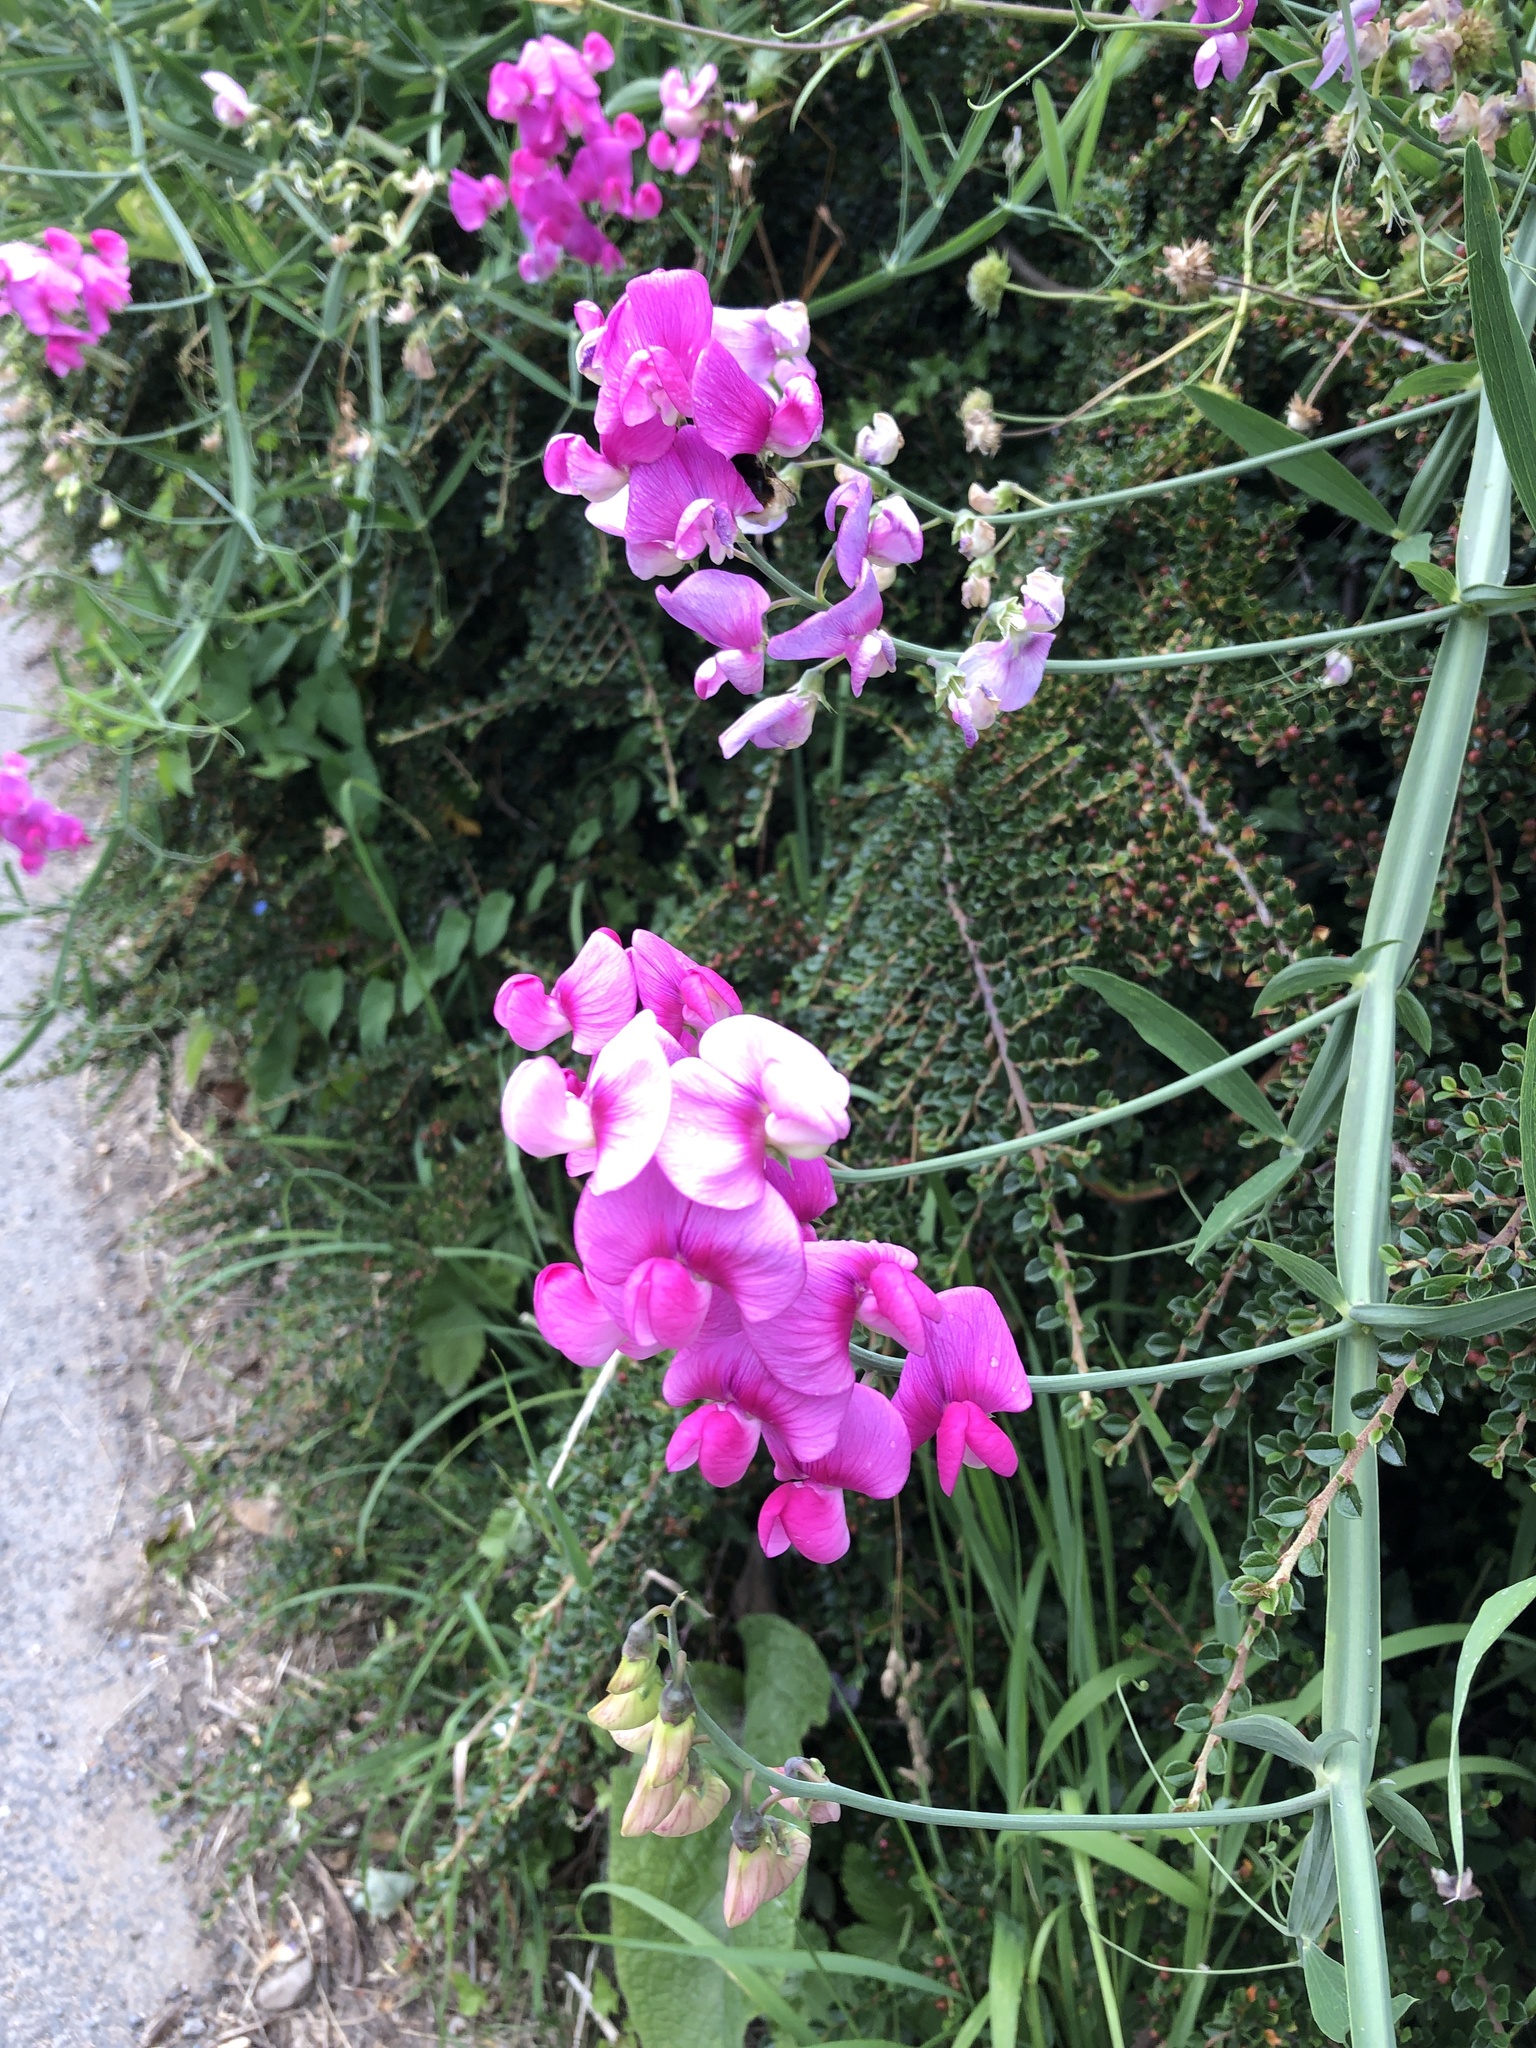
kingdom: Plantae
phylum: Tracheophyta
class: Magnoliopsida
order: Fabales
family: Fabaceae
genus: Lathyrus
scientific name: Lathyrus latifolius
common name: Perennial pea
